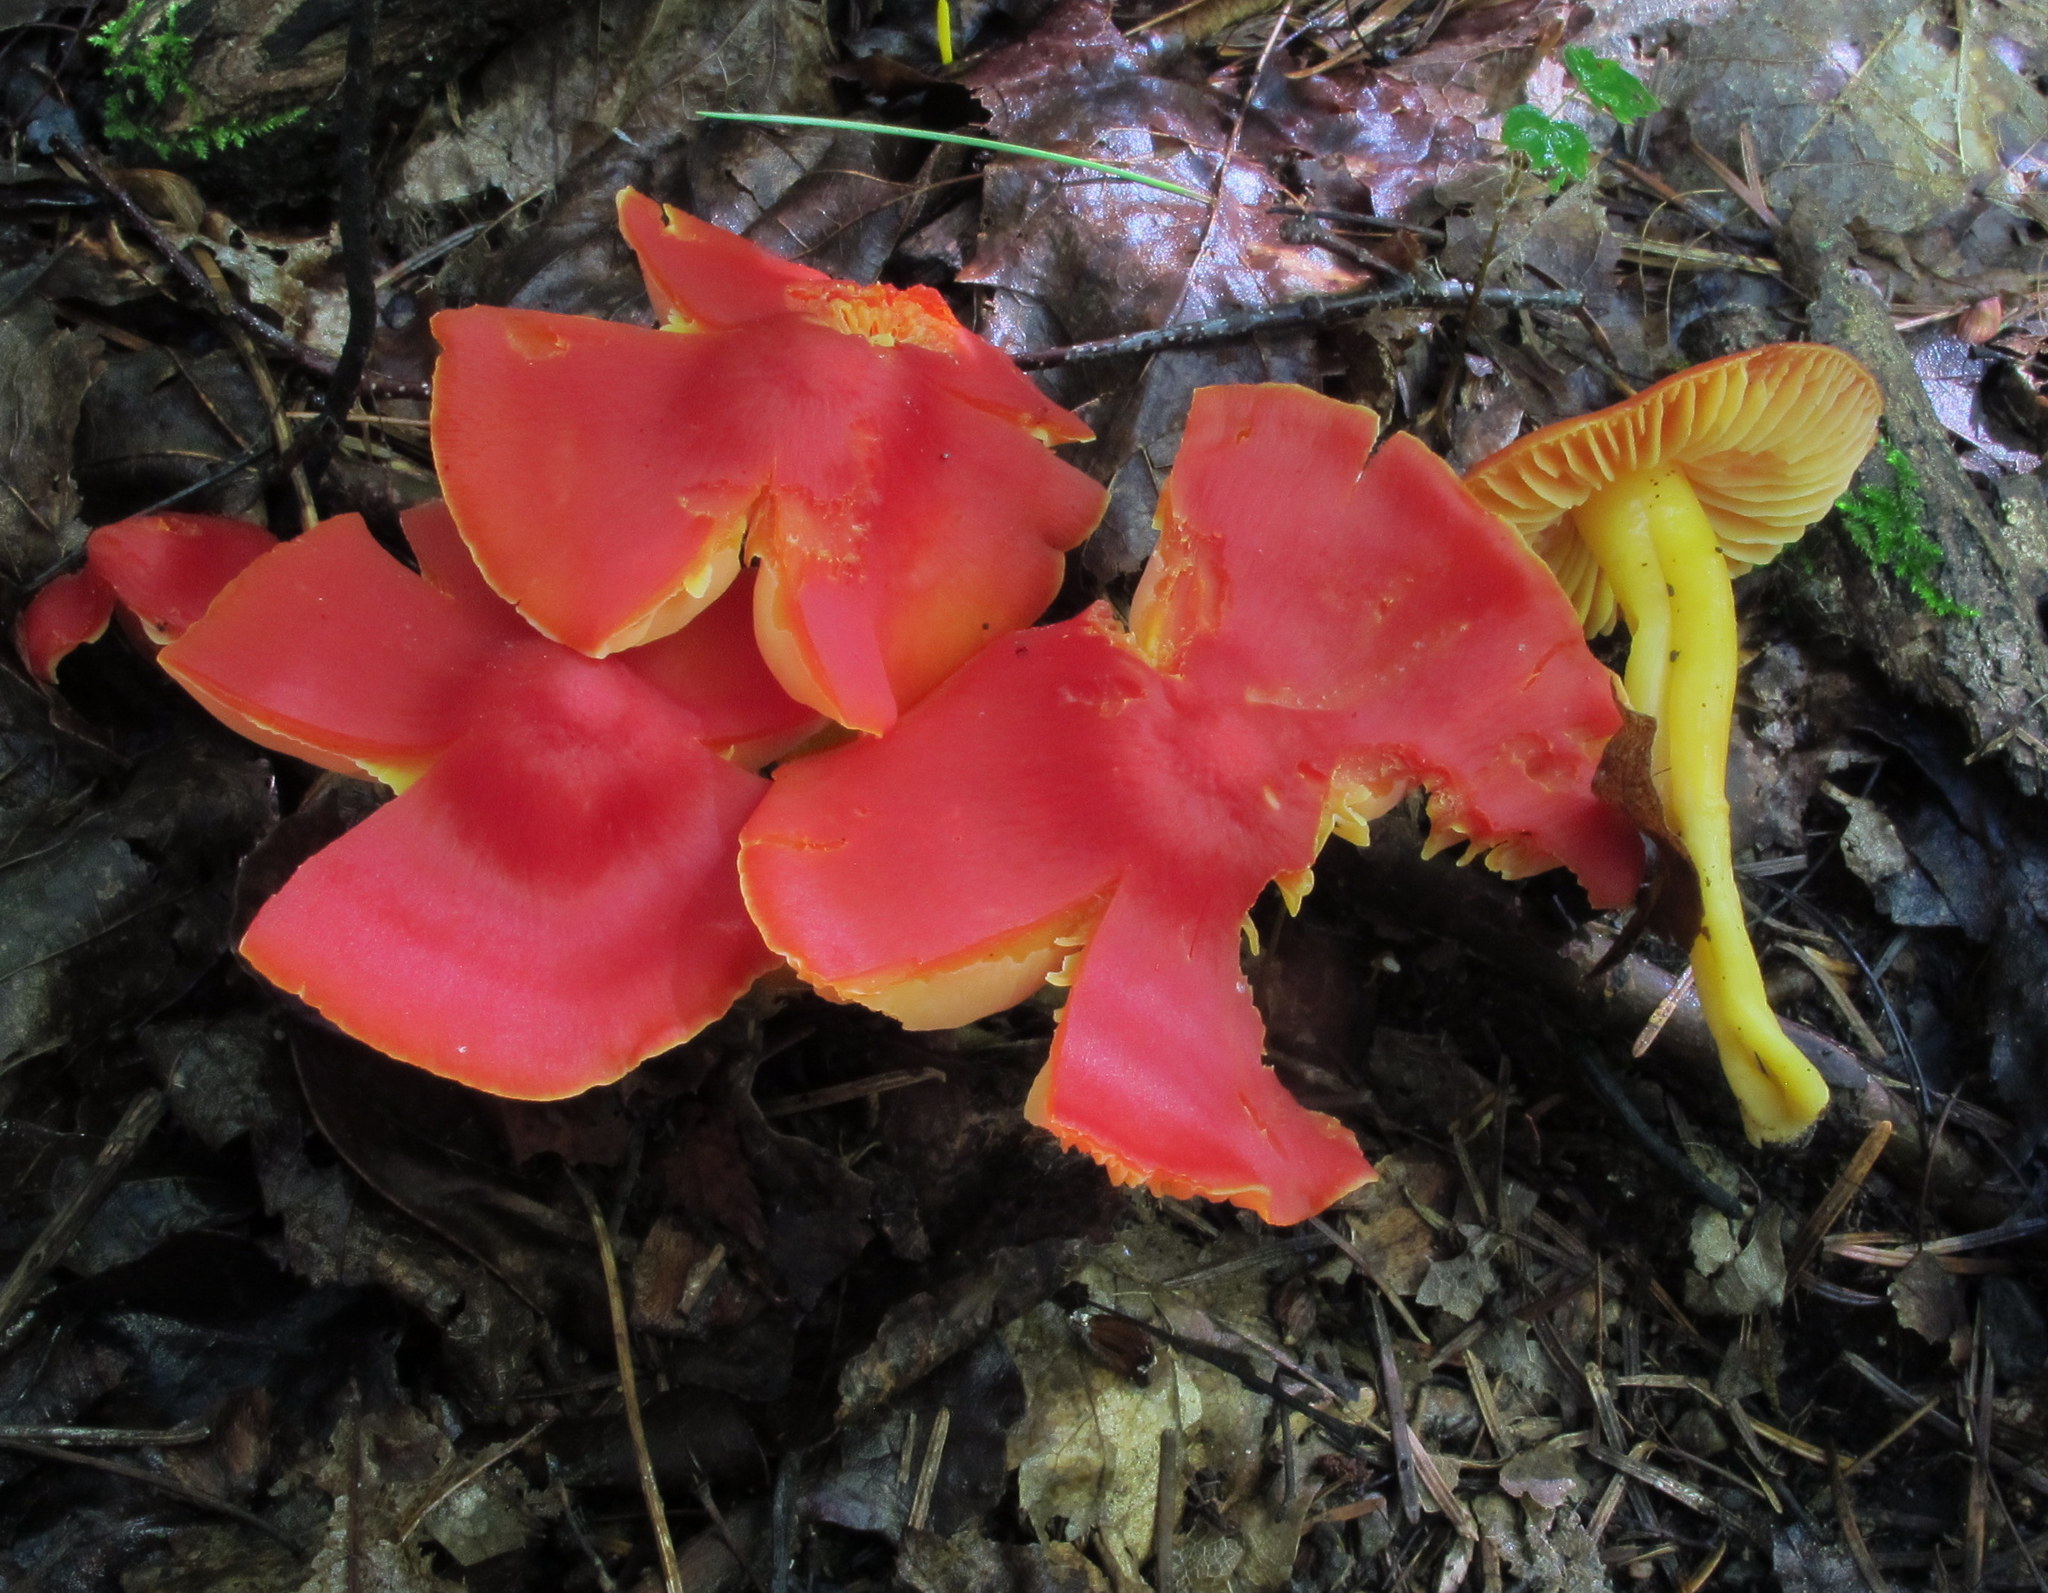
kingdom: Fungi
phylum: Basidiomycota
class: Agaricomycetes
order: Agaricales
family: Hygrophoraceae
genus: Hygrocybe
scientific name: Hygrocybe coccinea
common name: Scarlet hood
